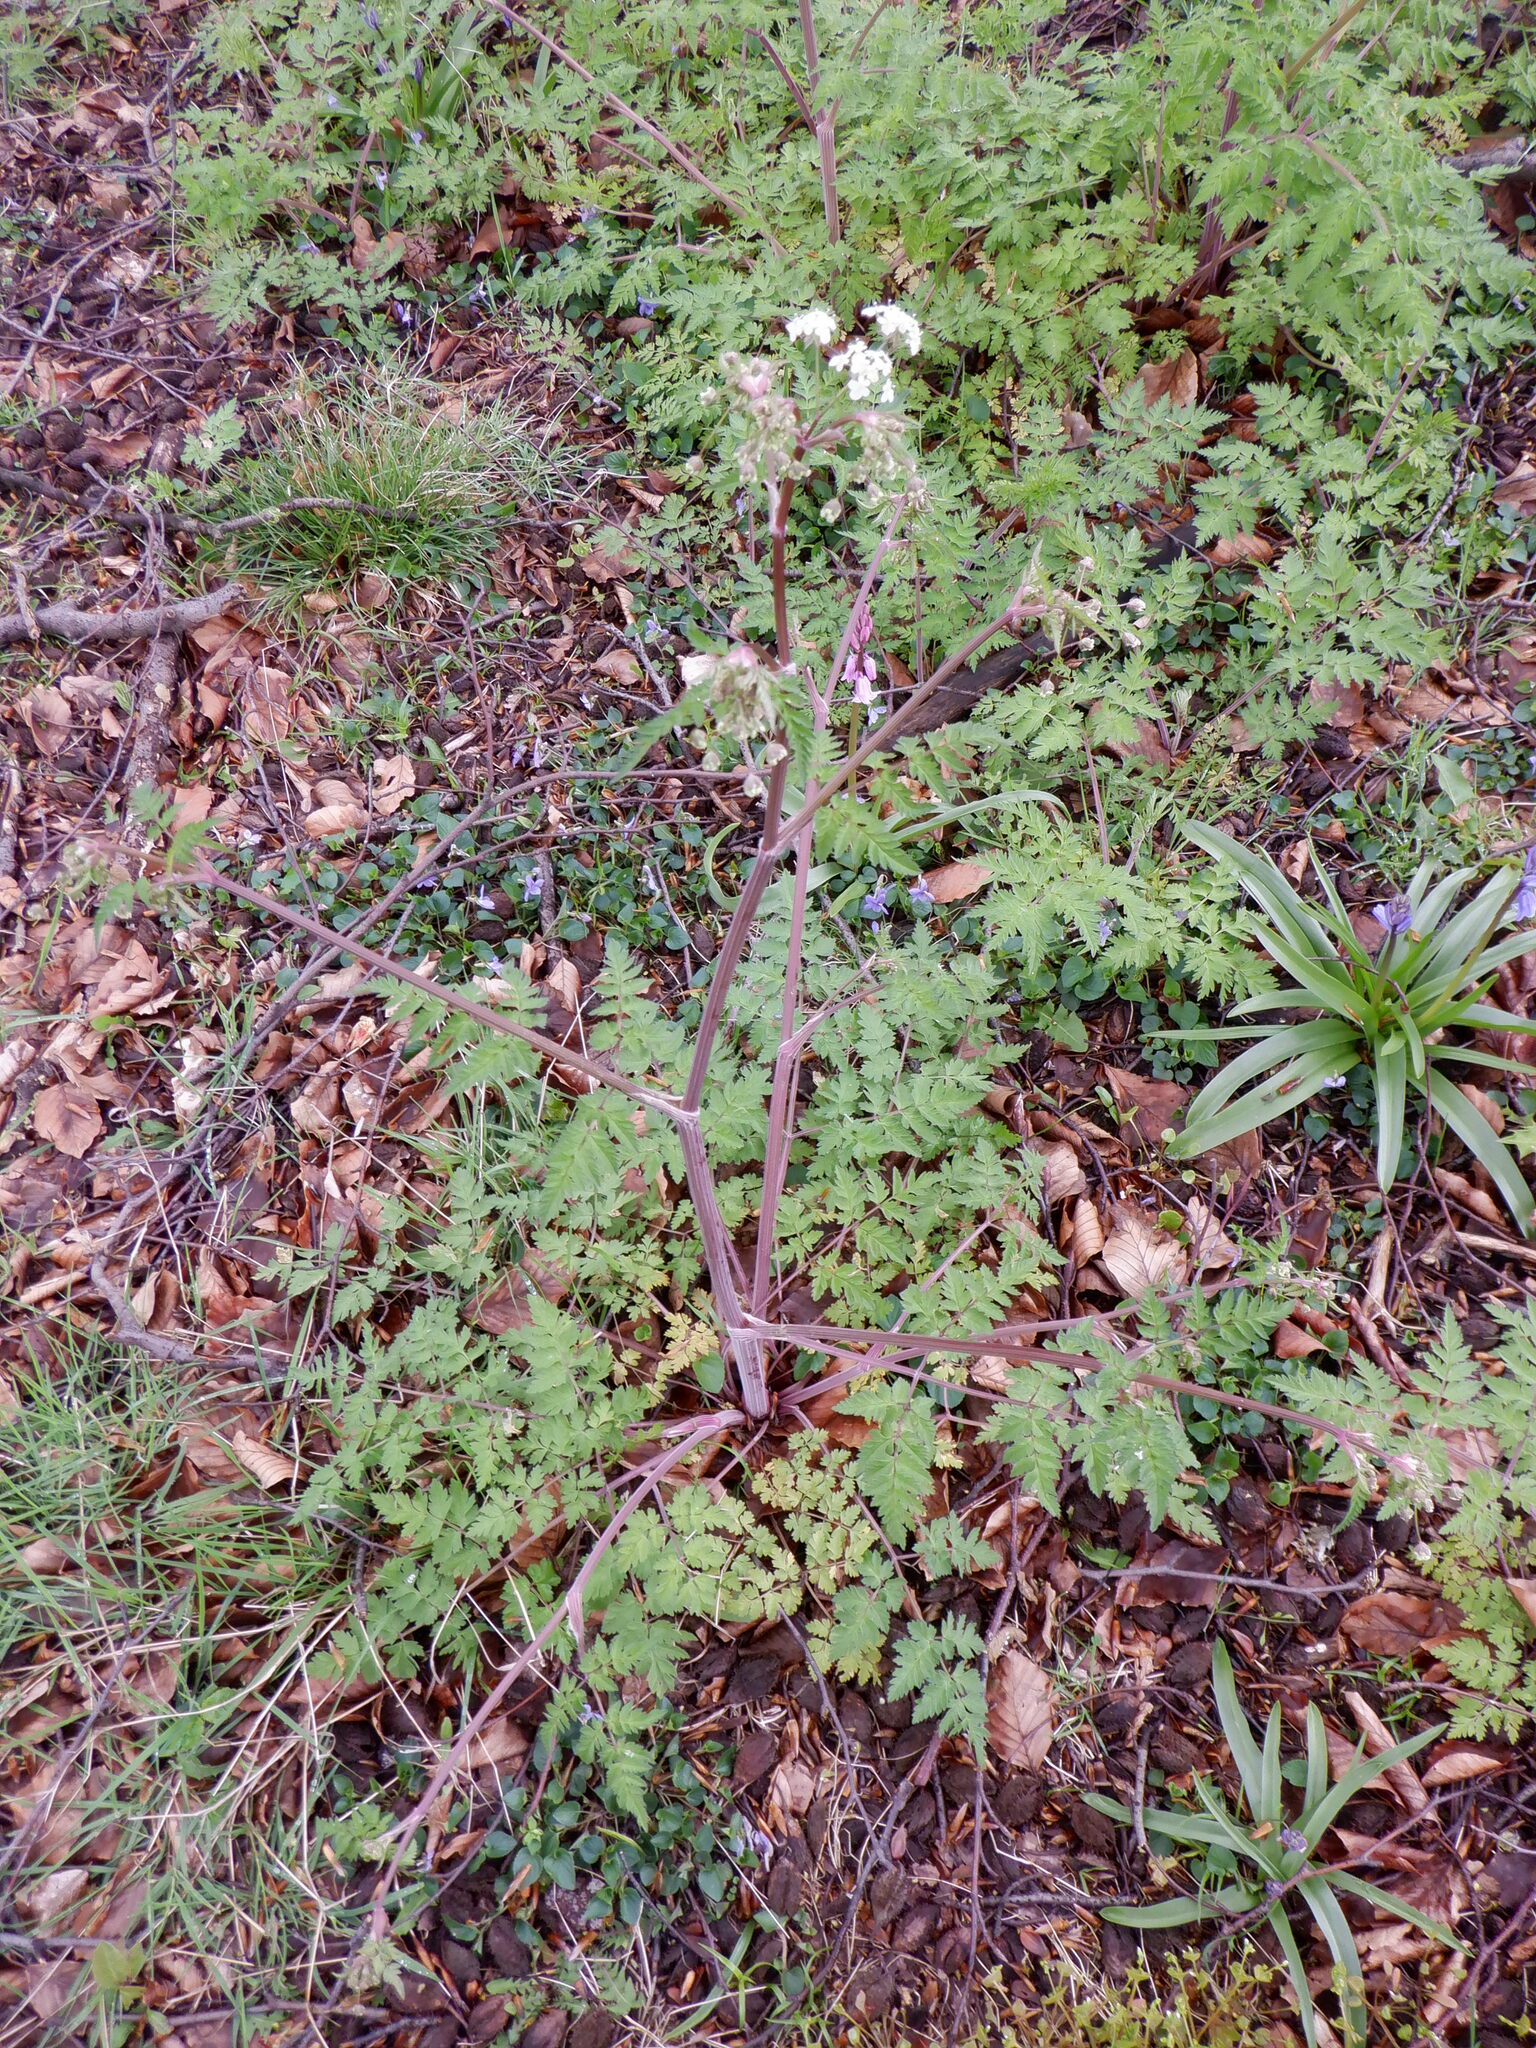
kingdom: Plantae
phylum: Tracheophyta
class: Magnoliopsida
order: Apiales
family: Apiaceae
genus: Anthriscus
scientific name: Anthriscus sylvestris
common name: Cow parsley
